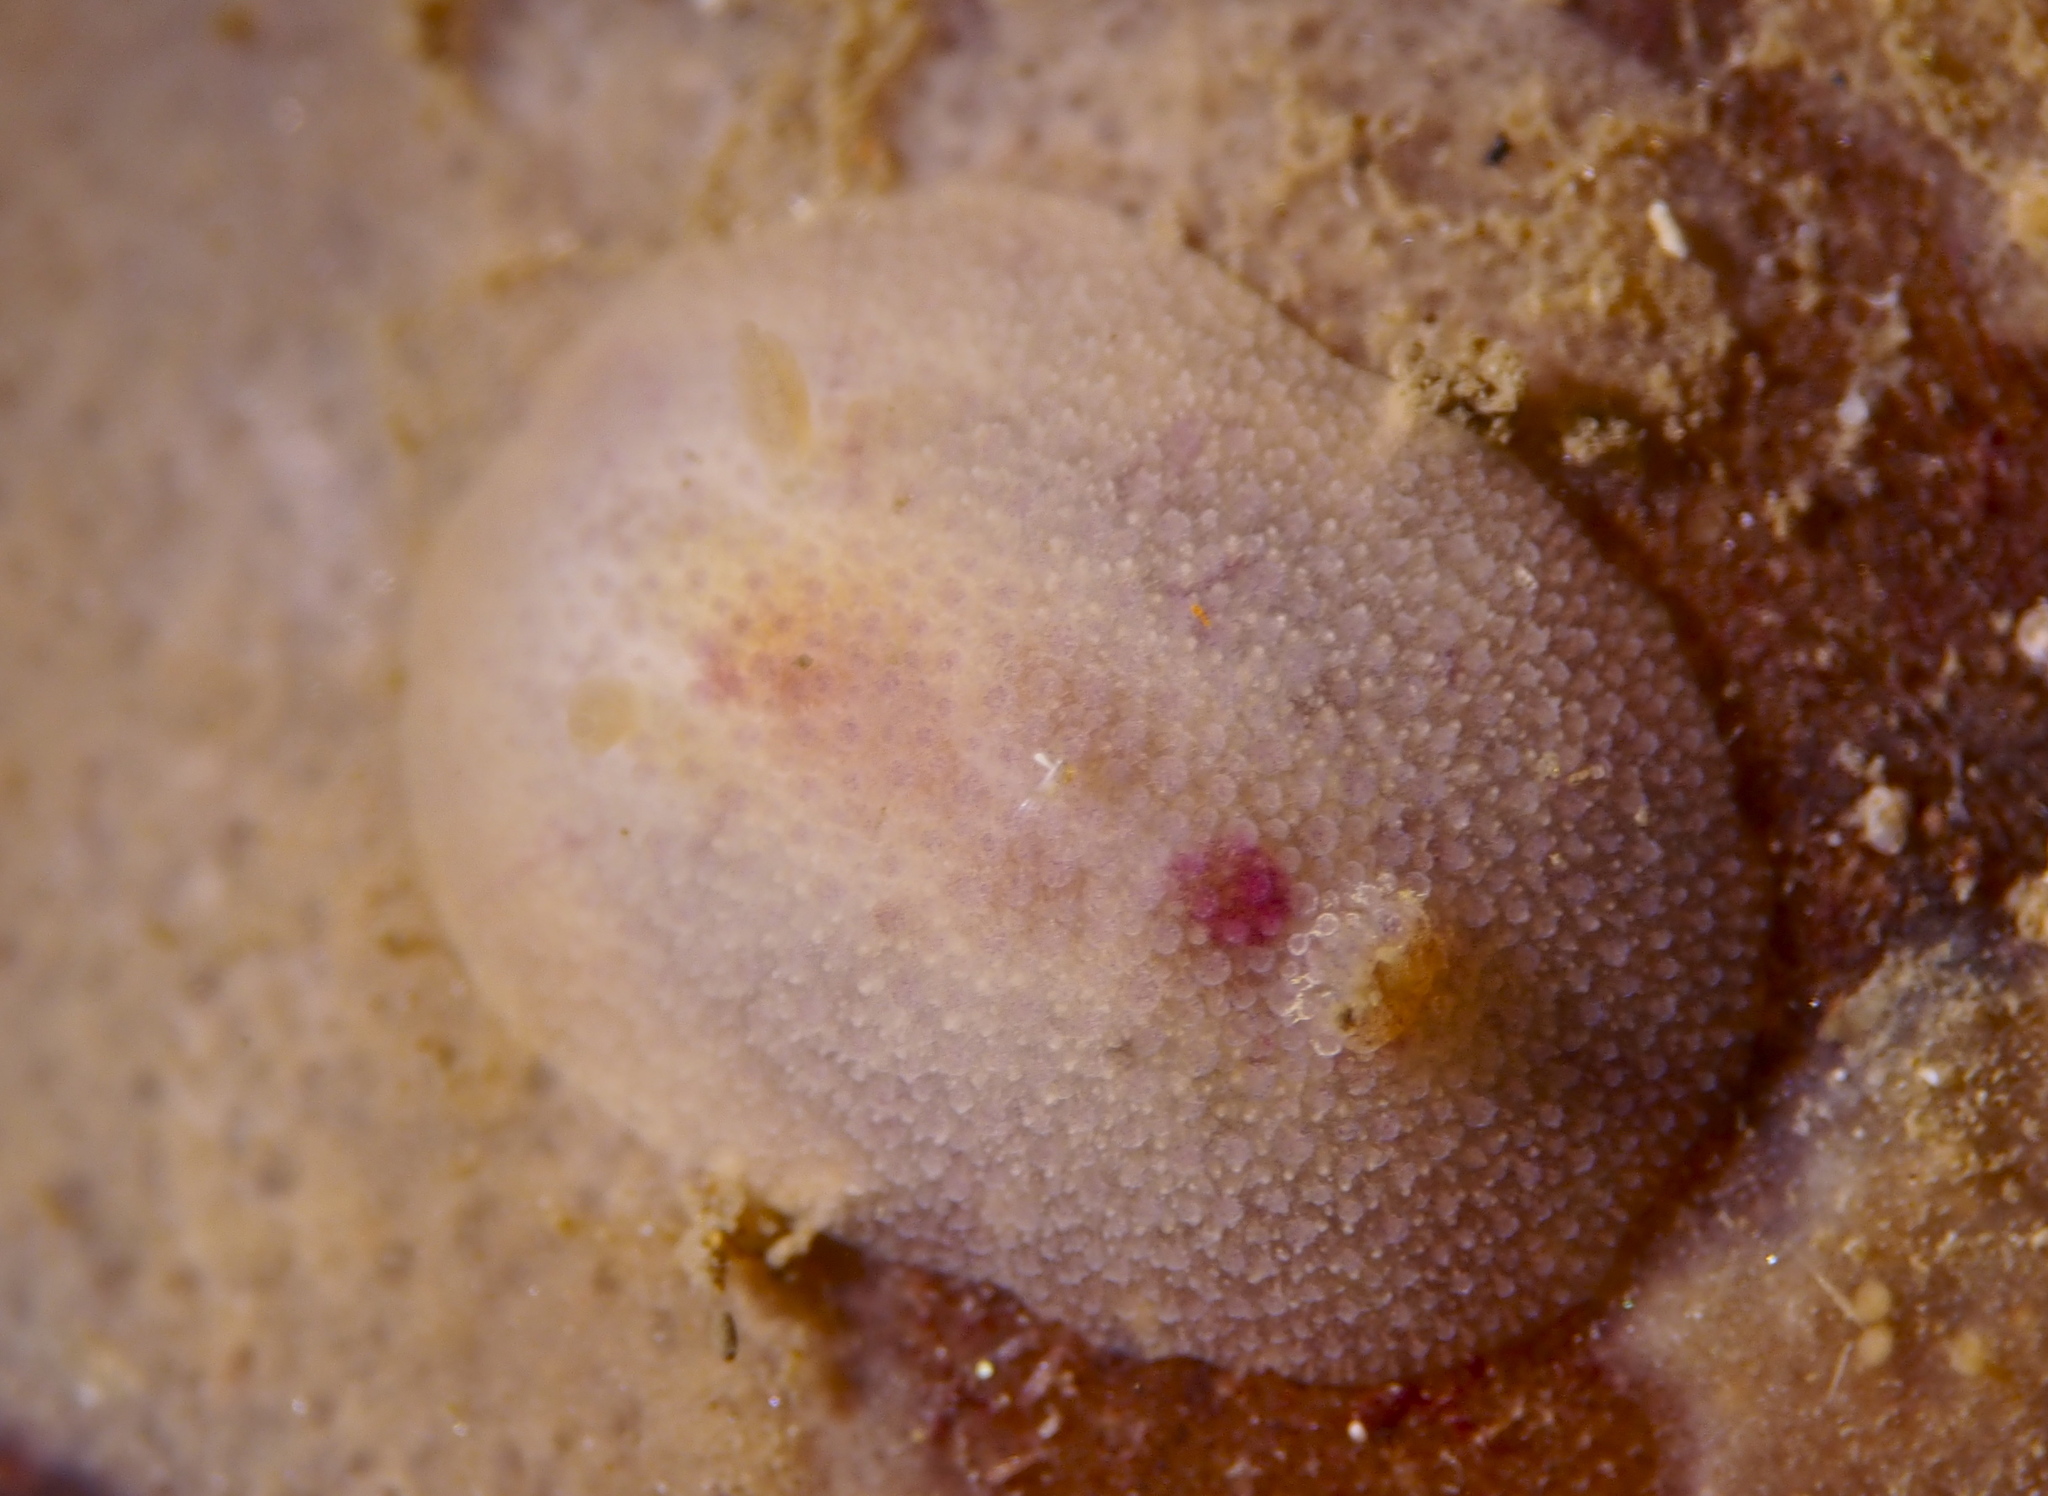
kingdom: Animalia
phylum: Mollusca
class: Gastropoda
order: Nudibranchia
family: Onchidorididae
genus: Acanthodoris
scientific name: Acanthodoris pilosa
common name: Hairy spiny doris
